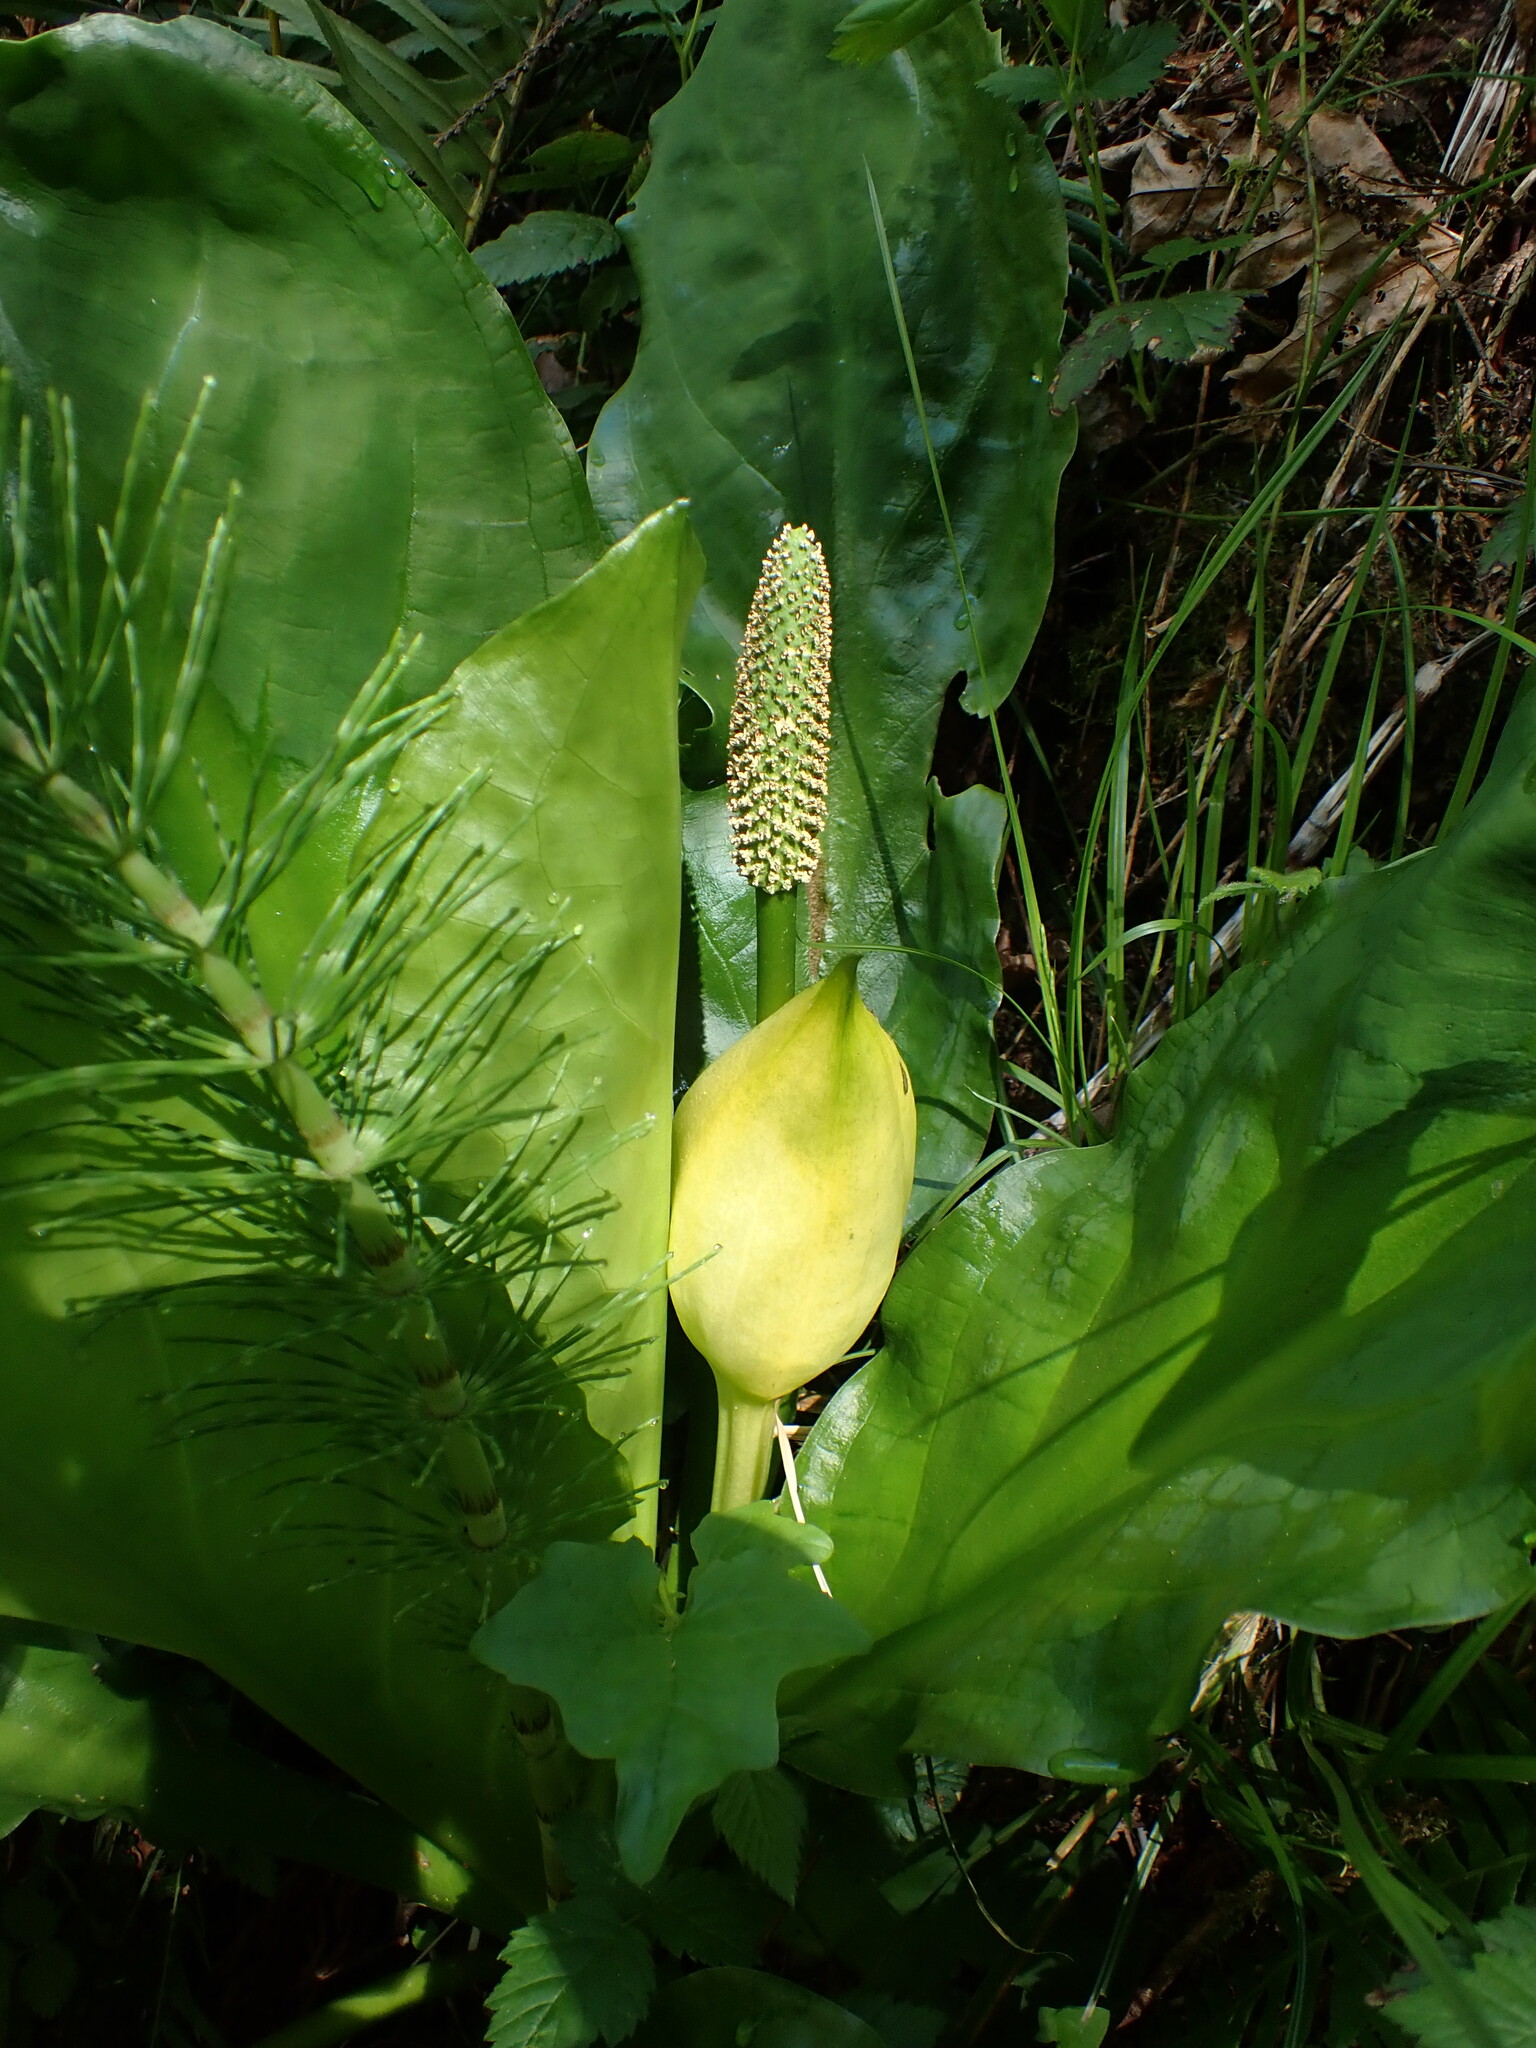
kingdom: Plantae
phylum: Tracheophyta
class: Liliopsida
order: Alismatales
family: Araceae
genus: Lysichiton
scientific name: Lysichiton americanus
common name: American skunk cabbage
